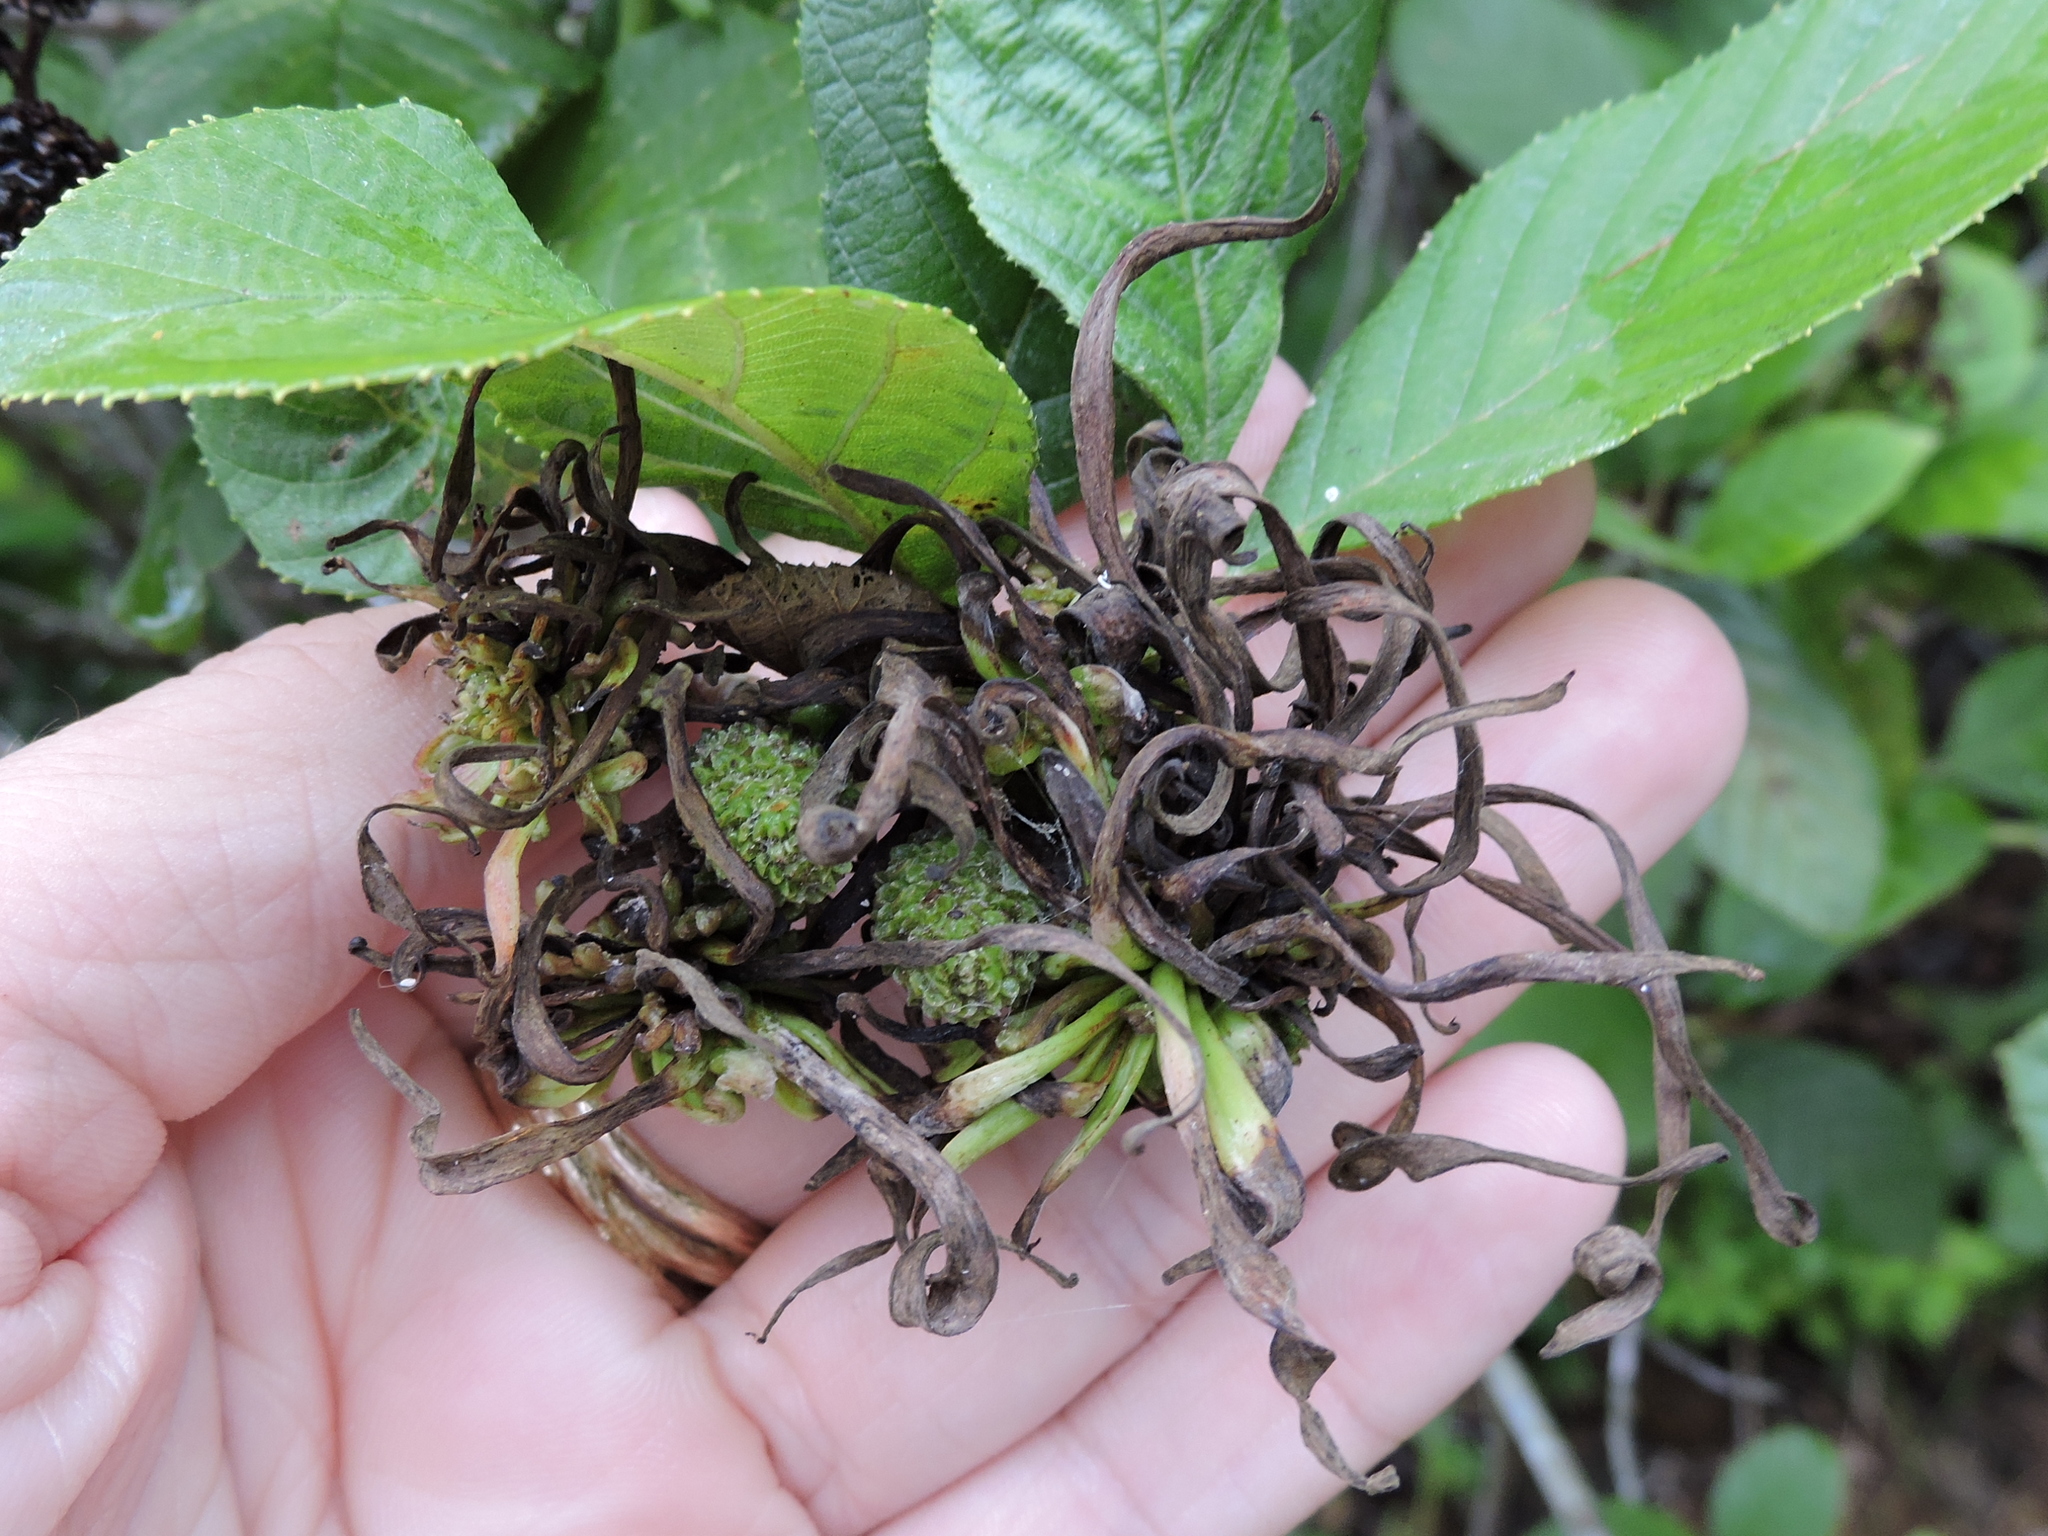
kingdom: Plantae
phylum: Tracheophyta
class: Magnoliopsida
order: Fagales
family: Betulaceae
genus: Alnus
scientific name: Alnus serrulata
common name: Hazel alder
